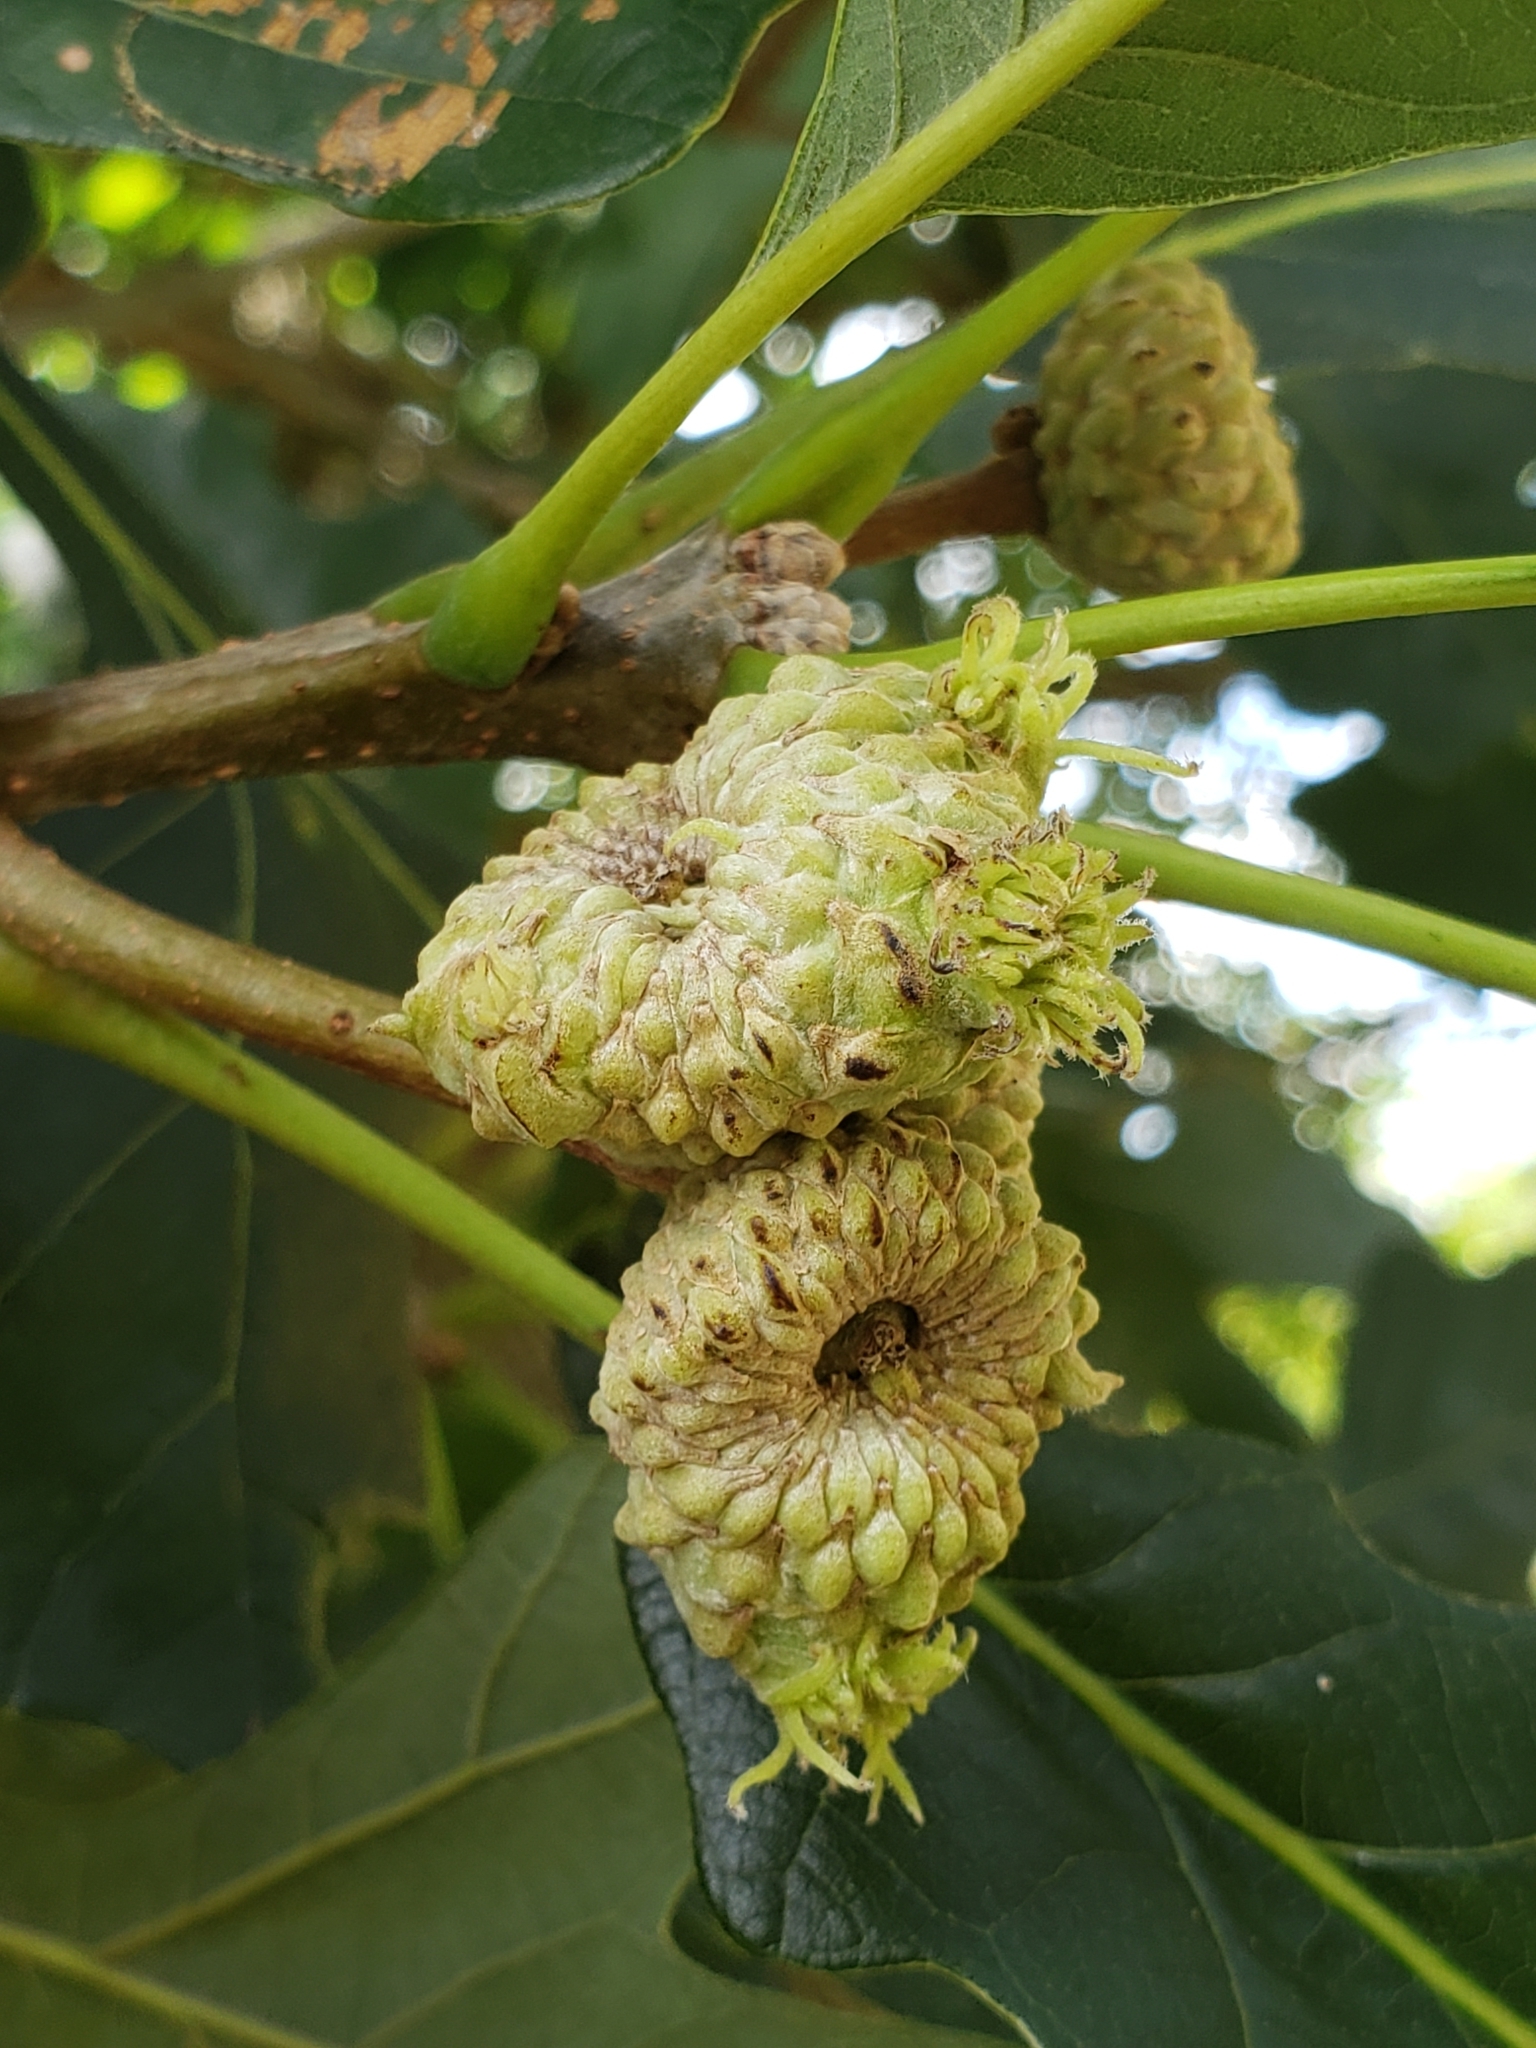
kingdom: Animalia
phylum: Arthropoda
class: Insecta
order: Hymenoptera
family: Cynipidae
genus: Andricus
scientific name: Andricus
